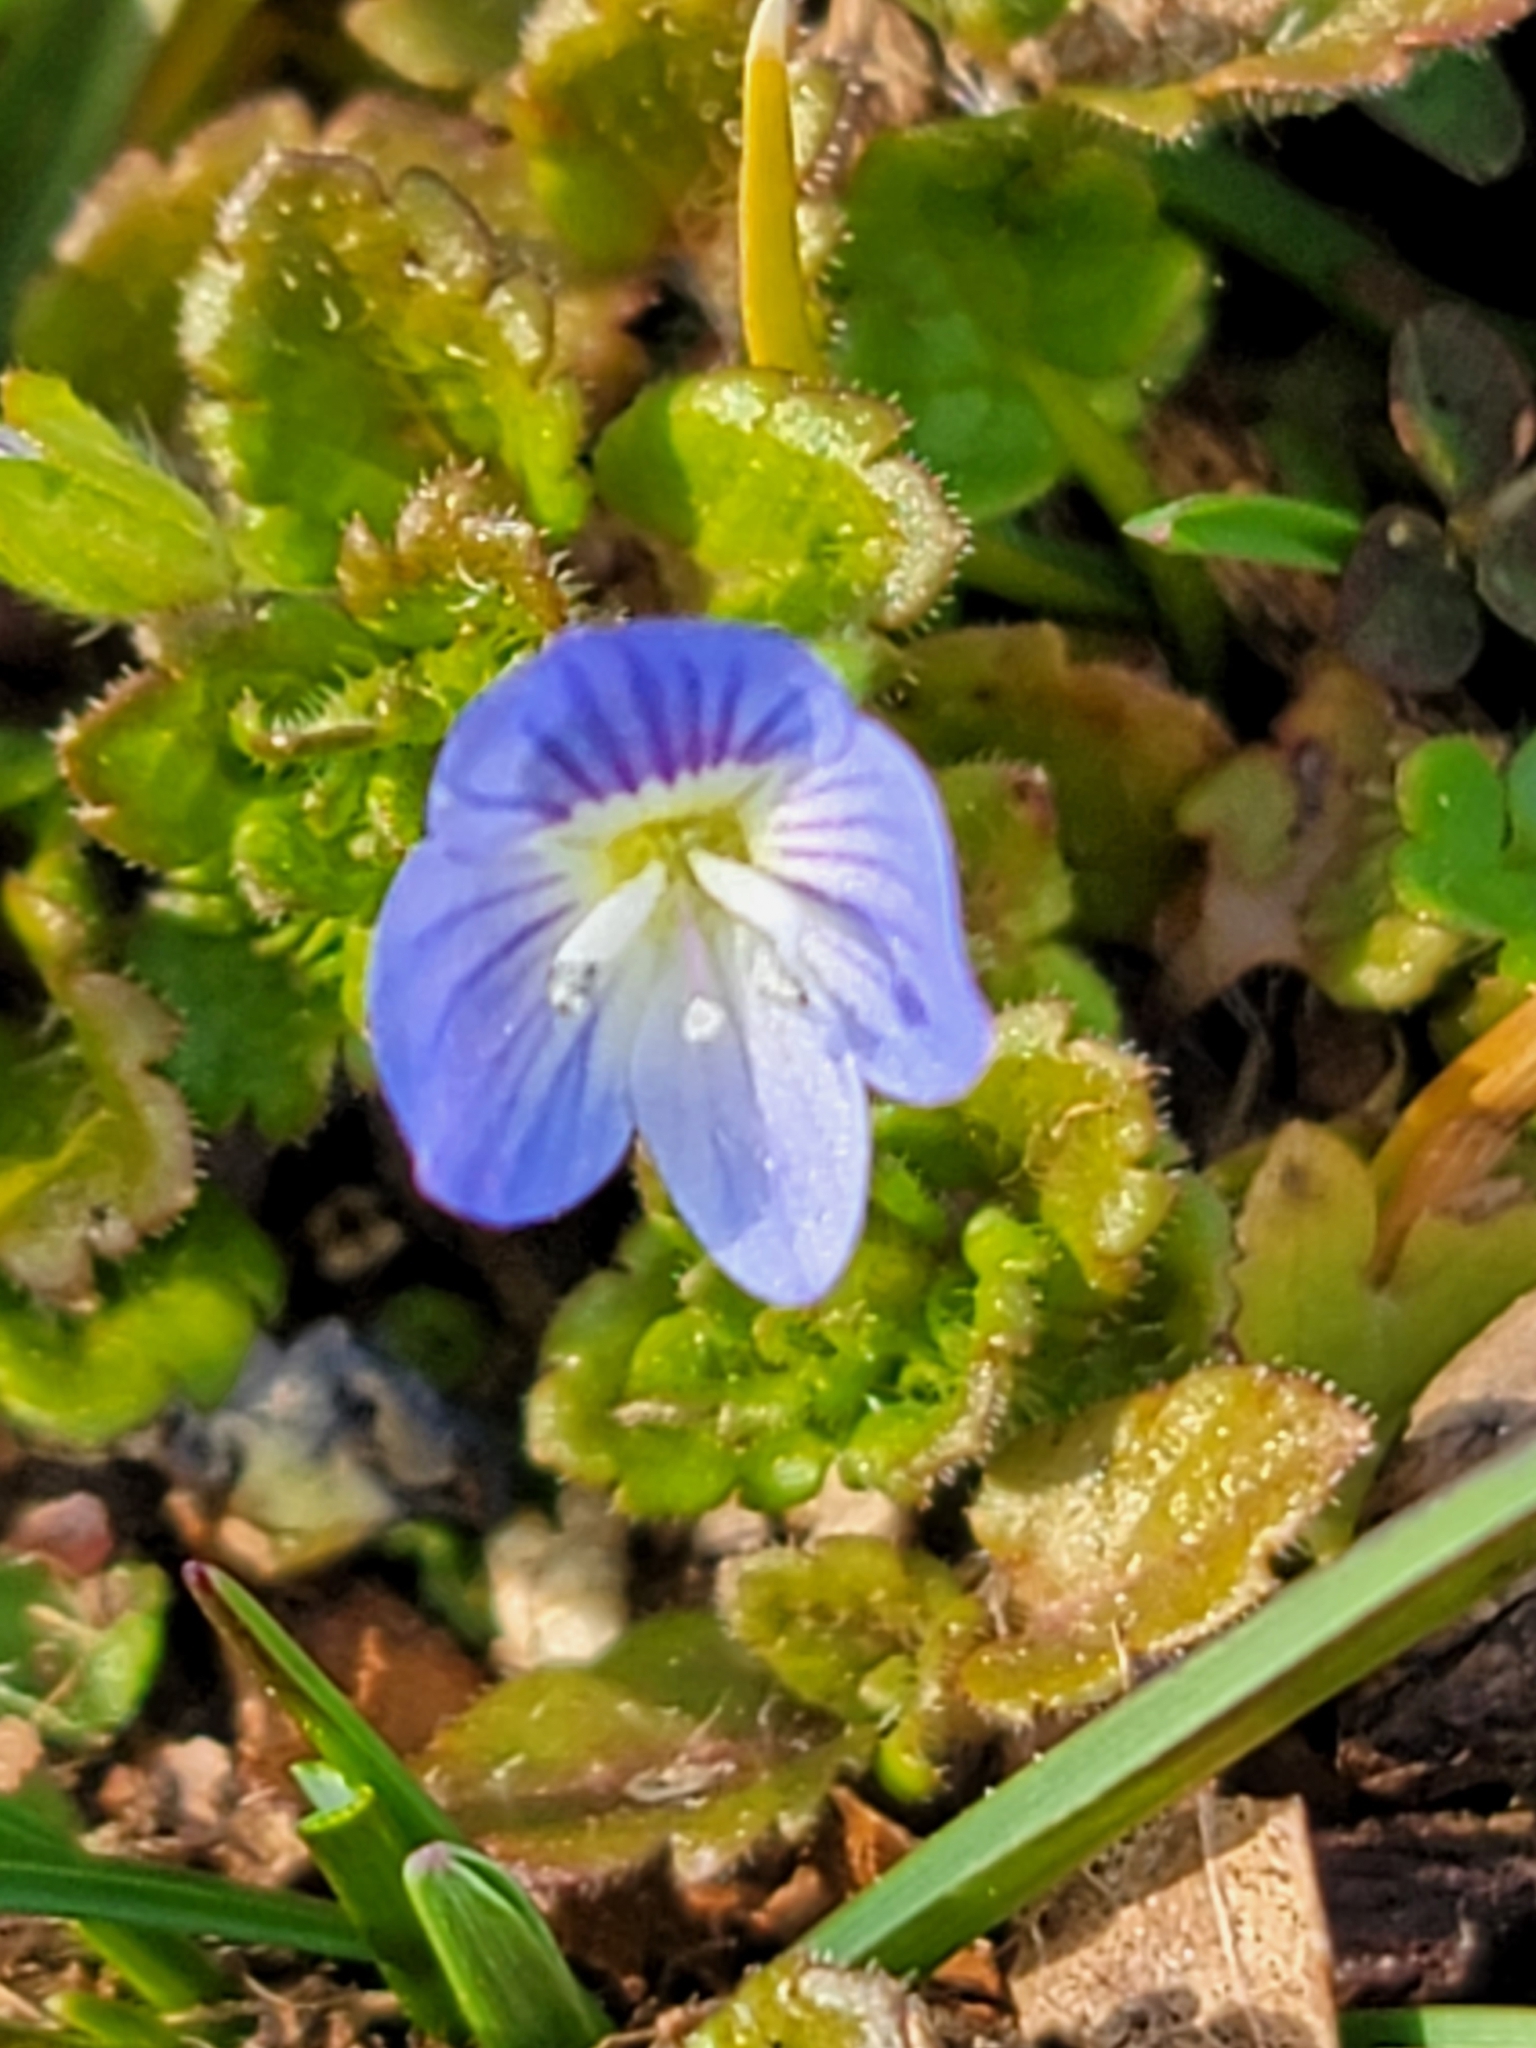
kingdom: Plantae
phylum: Tracheophyta
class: Magnoliopsida
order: Lamiales
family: Plantaginaceae
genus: Veronica
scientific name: Veronica persica
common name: Common field-speedwell
